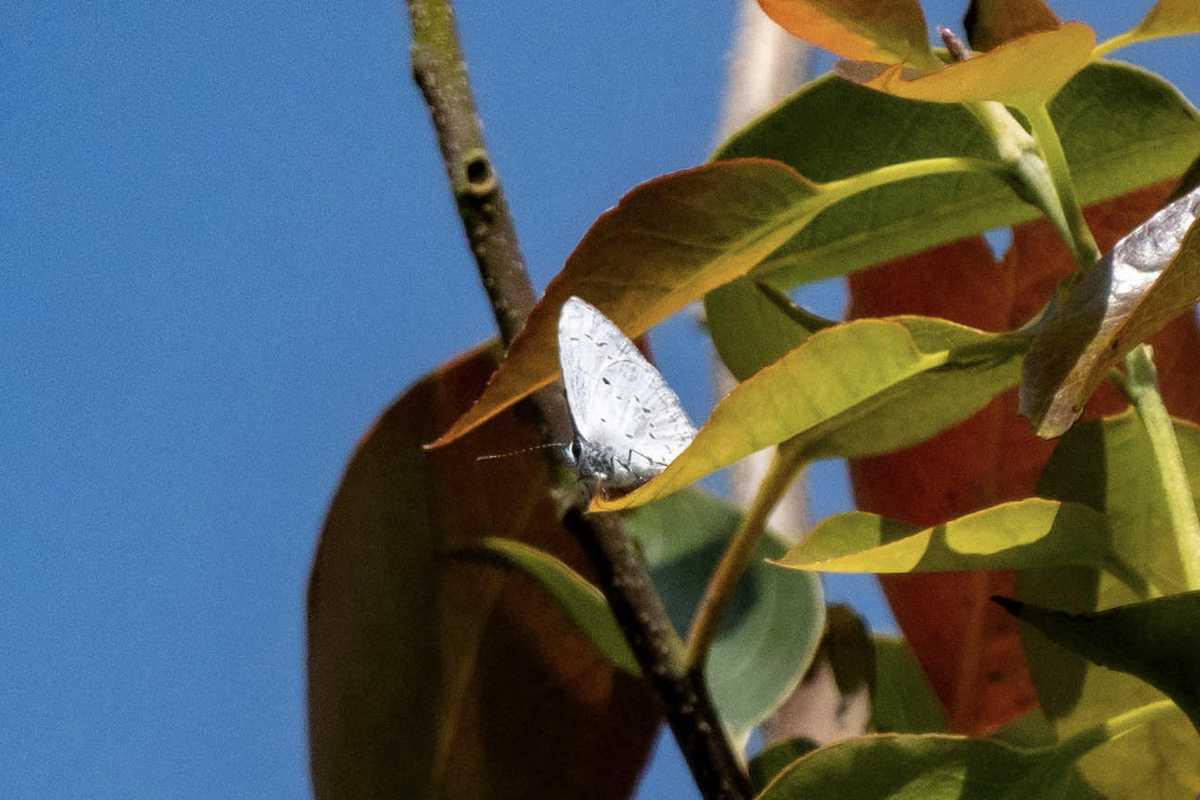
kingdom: Animalia
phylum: Arthropoda
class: Insecta
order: Lepidoptera
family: Lycaenidae
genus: Celastrina
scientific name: Celastrina lavendularis
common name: Plain hedge blue
